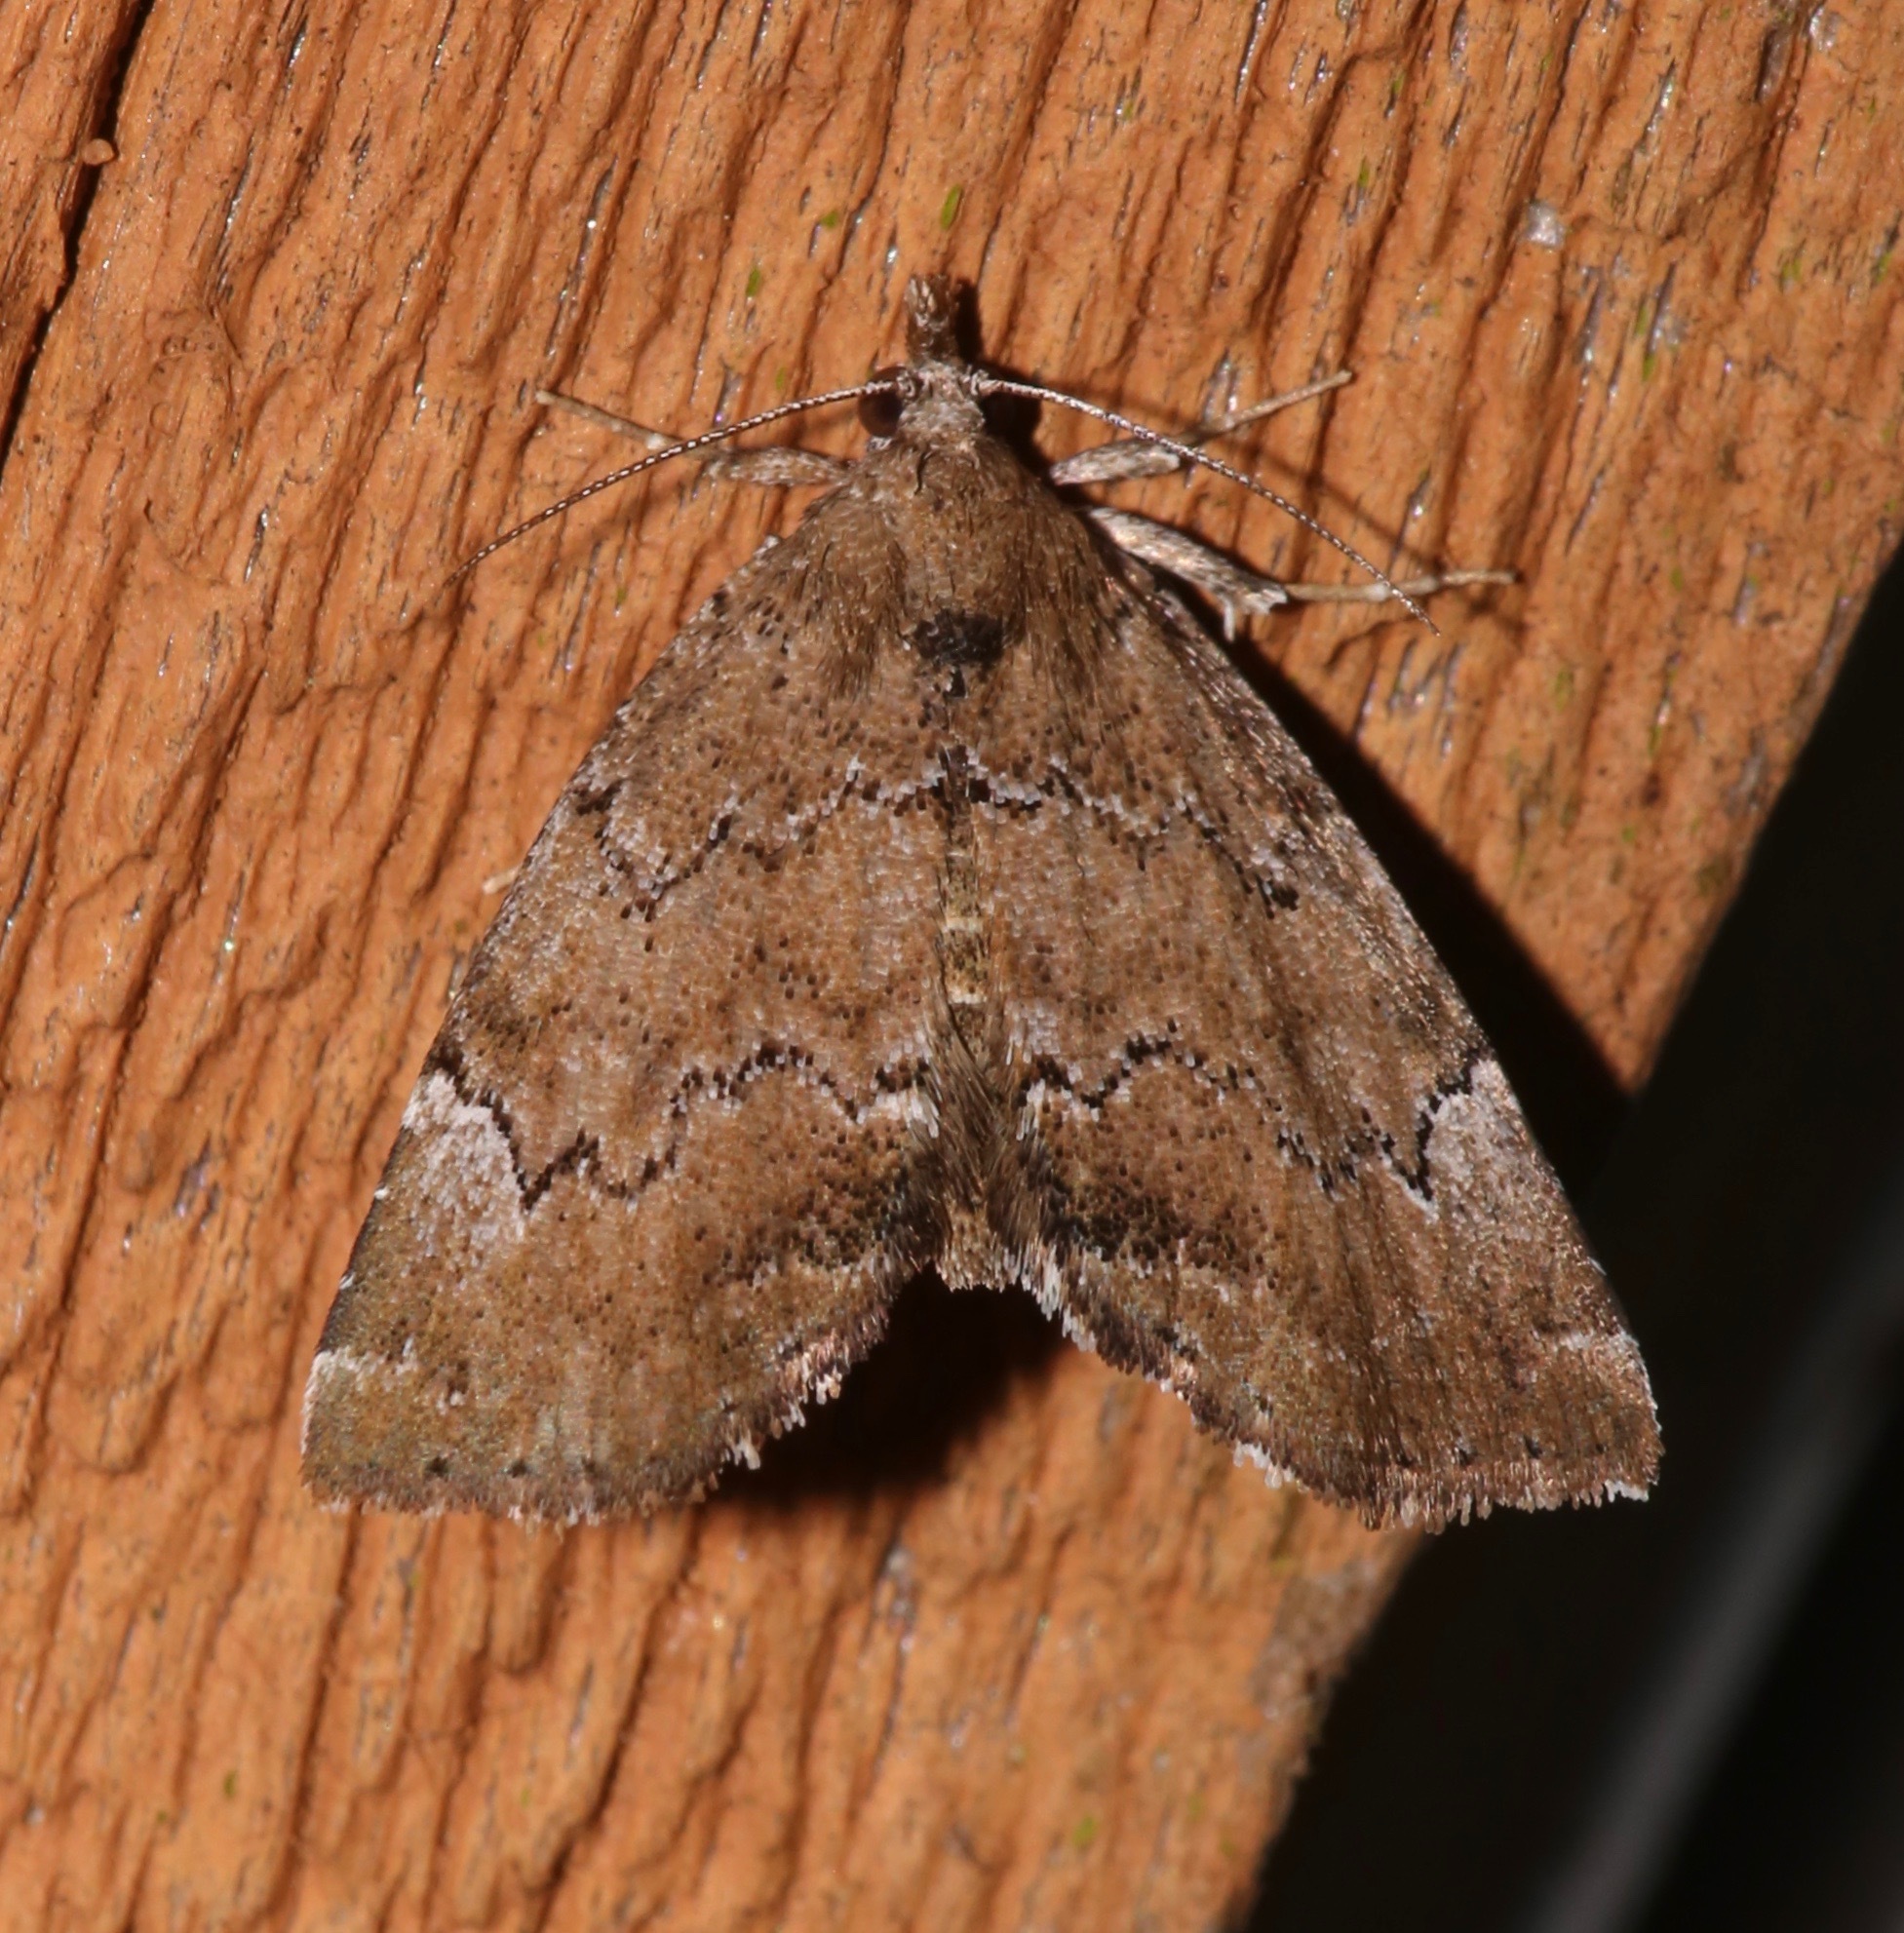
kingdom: Animalia
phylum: Arthropoda
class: Insecta
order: Lepidoptera
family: Erebidae
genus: Cutina
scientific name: Cutina aluticolor
